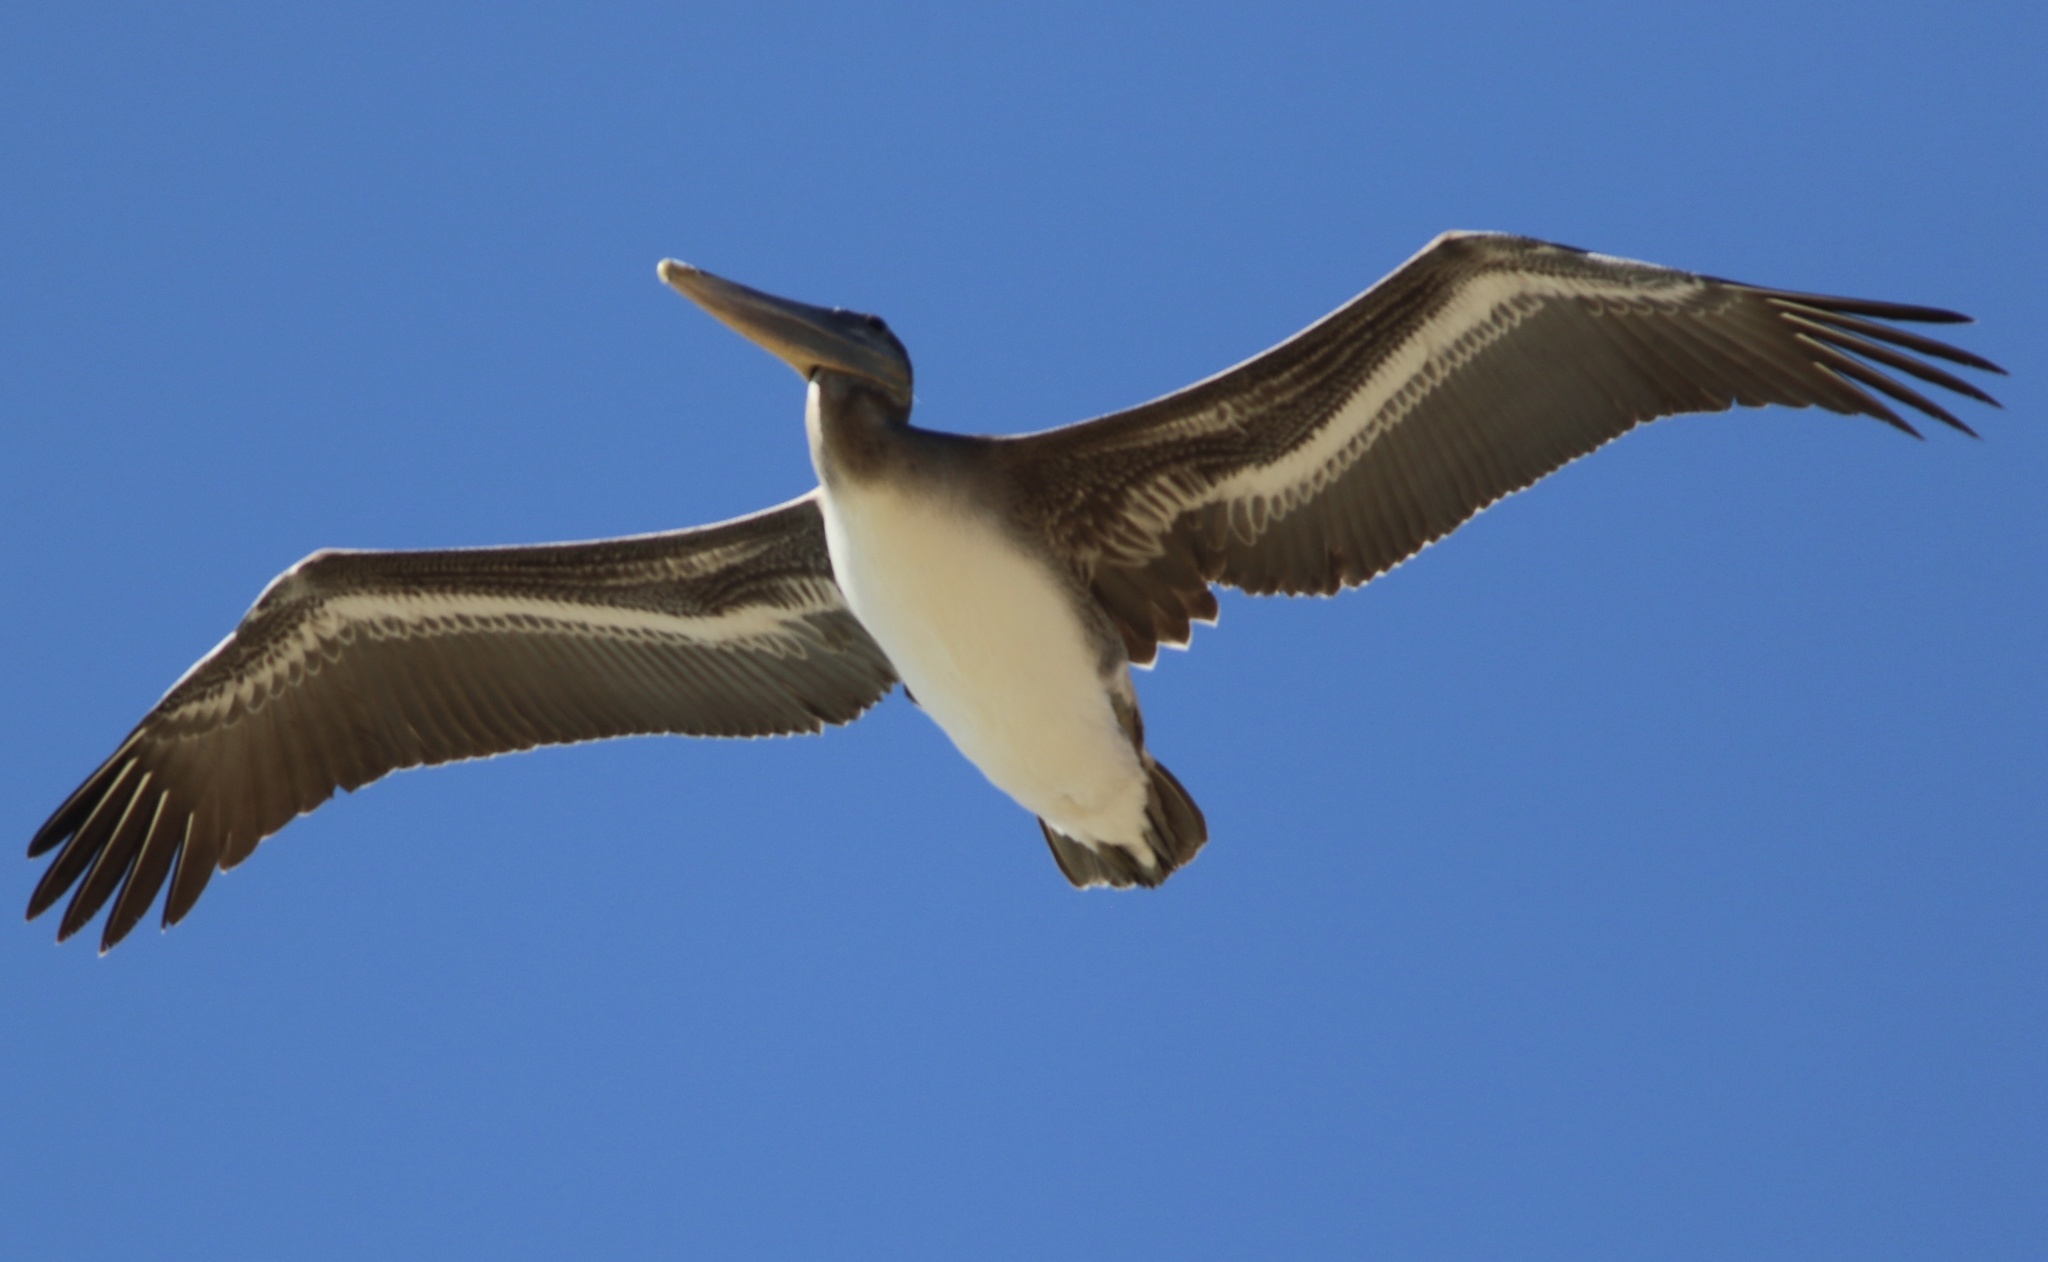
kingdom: Animalia
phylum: Chordata
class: Aves
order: Pelecaniformes
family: Pelecanidae
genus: Pelecanus
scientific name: Pelecanus occidentalis
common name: Brown pelican
